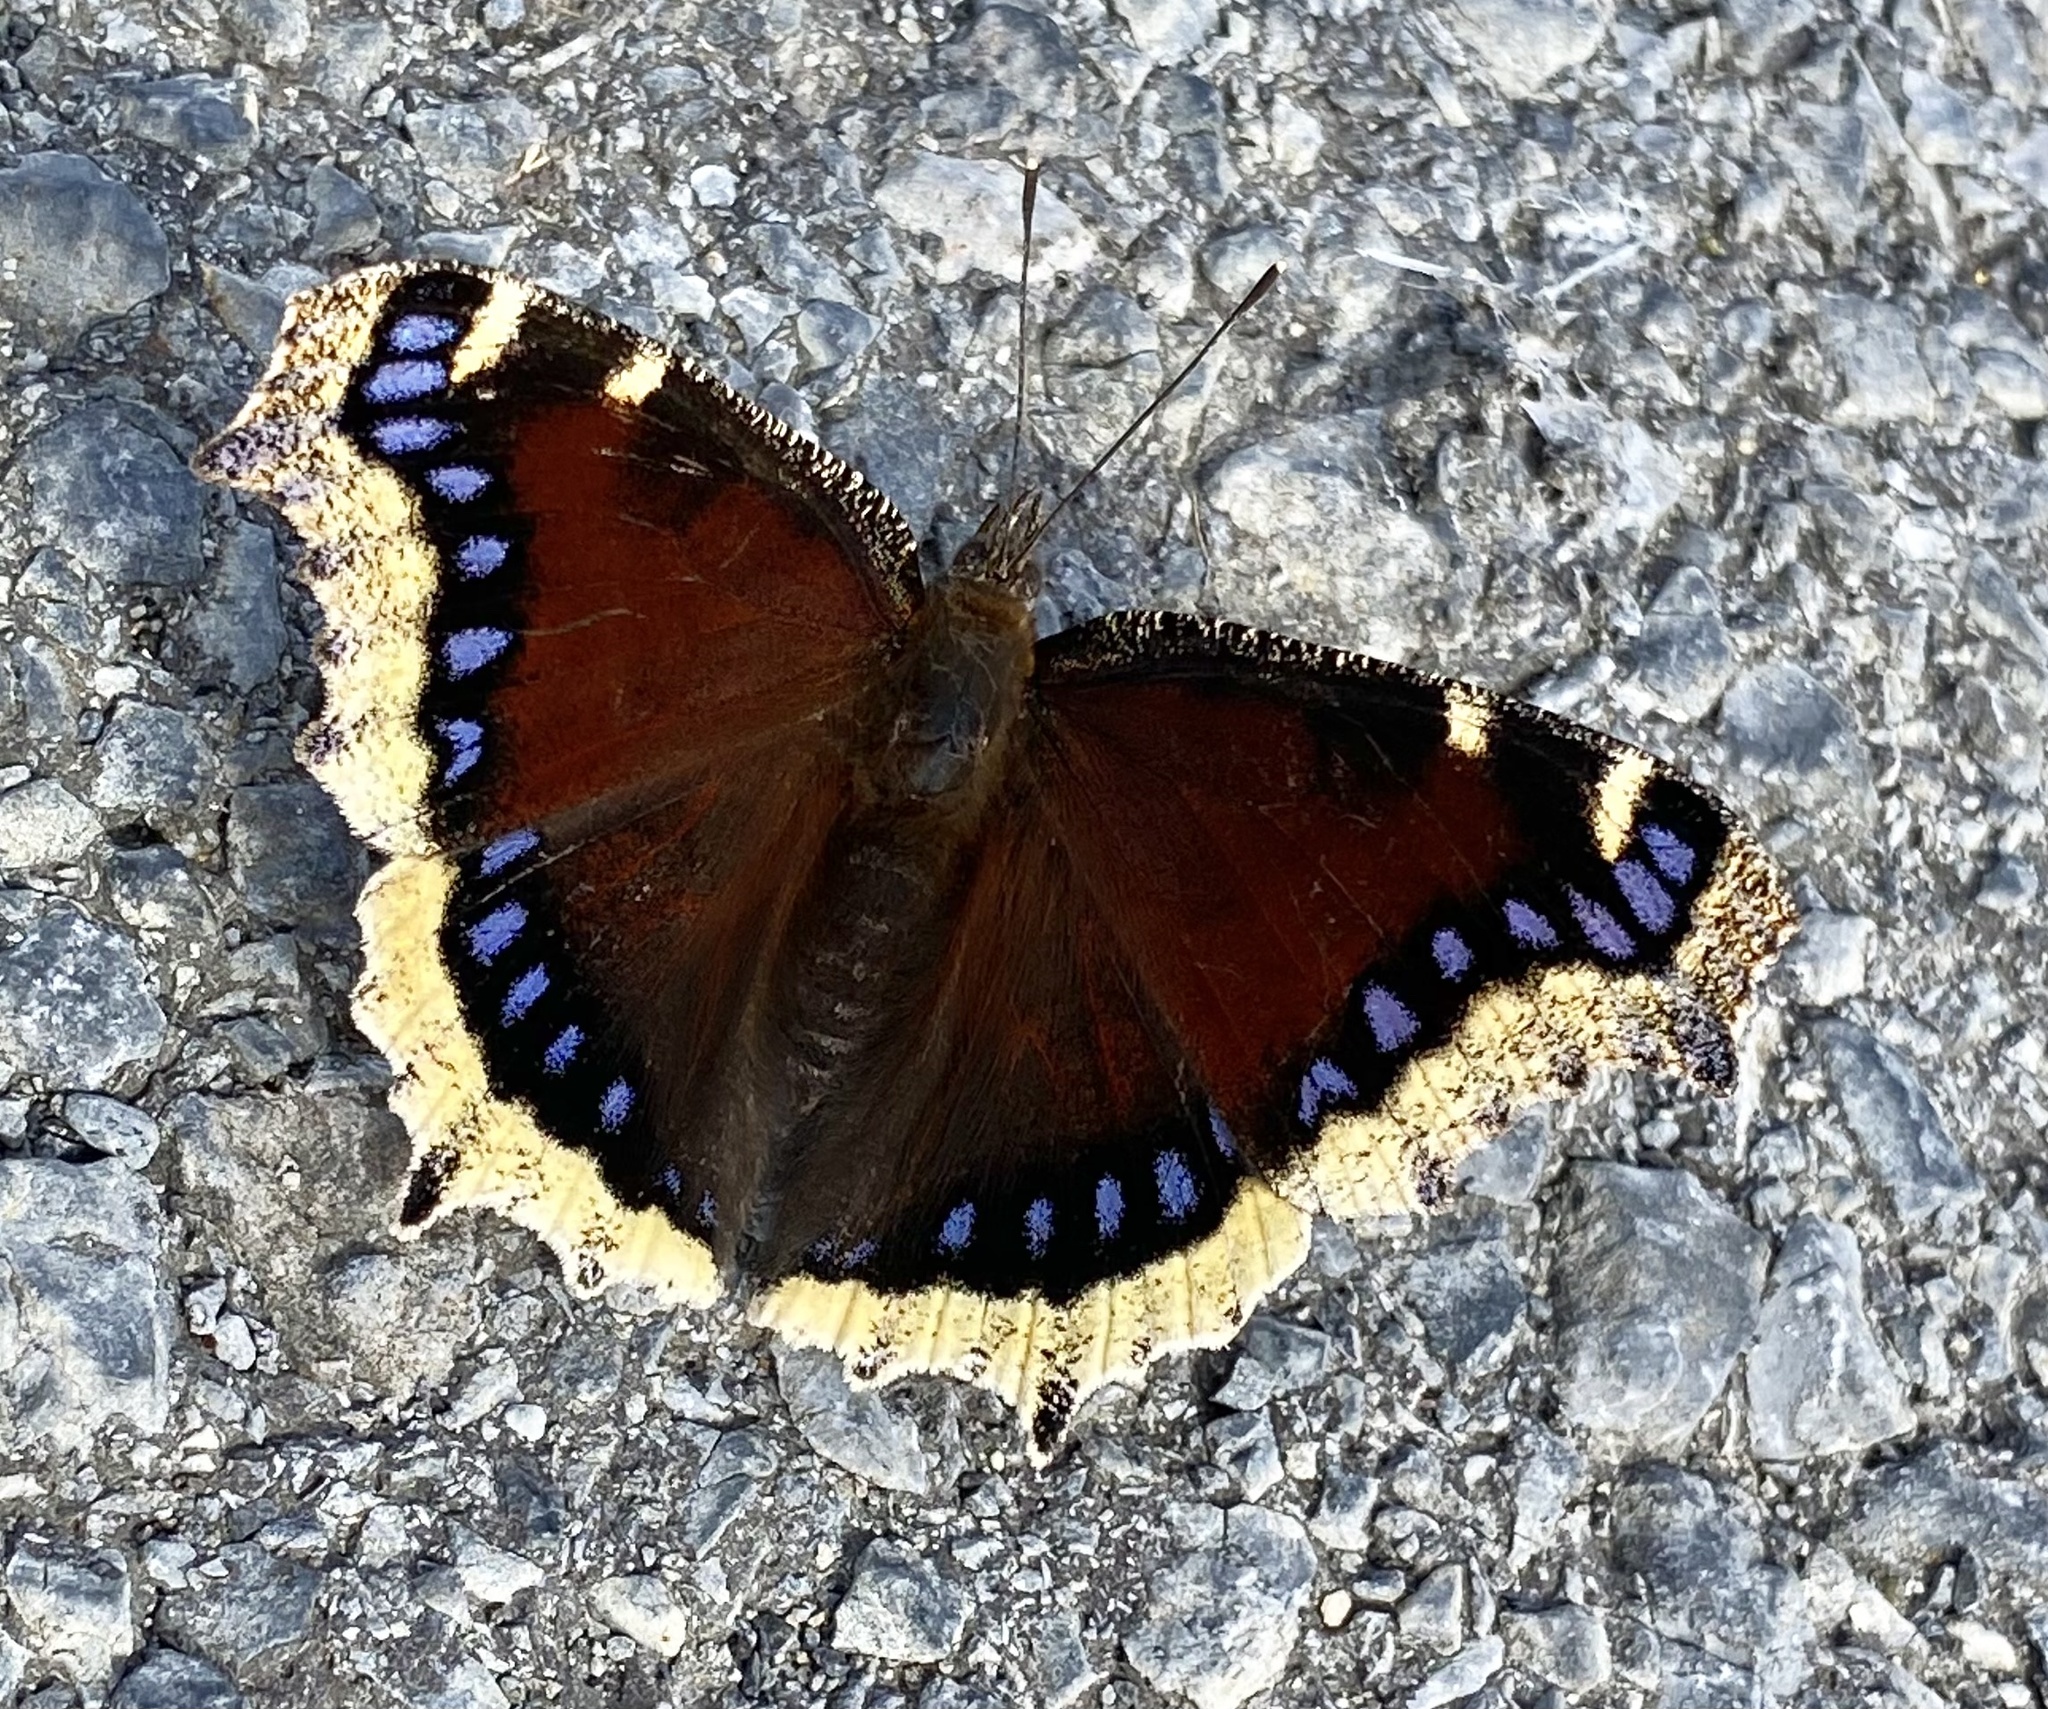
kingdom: Animalia
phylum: Arthropoda
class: Insecta
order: Lepidoptera
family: Nymphalidae
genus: Nymphalis
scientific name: Nymphalis antiopa
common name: Camberwell beauty
